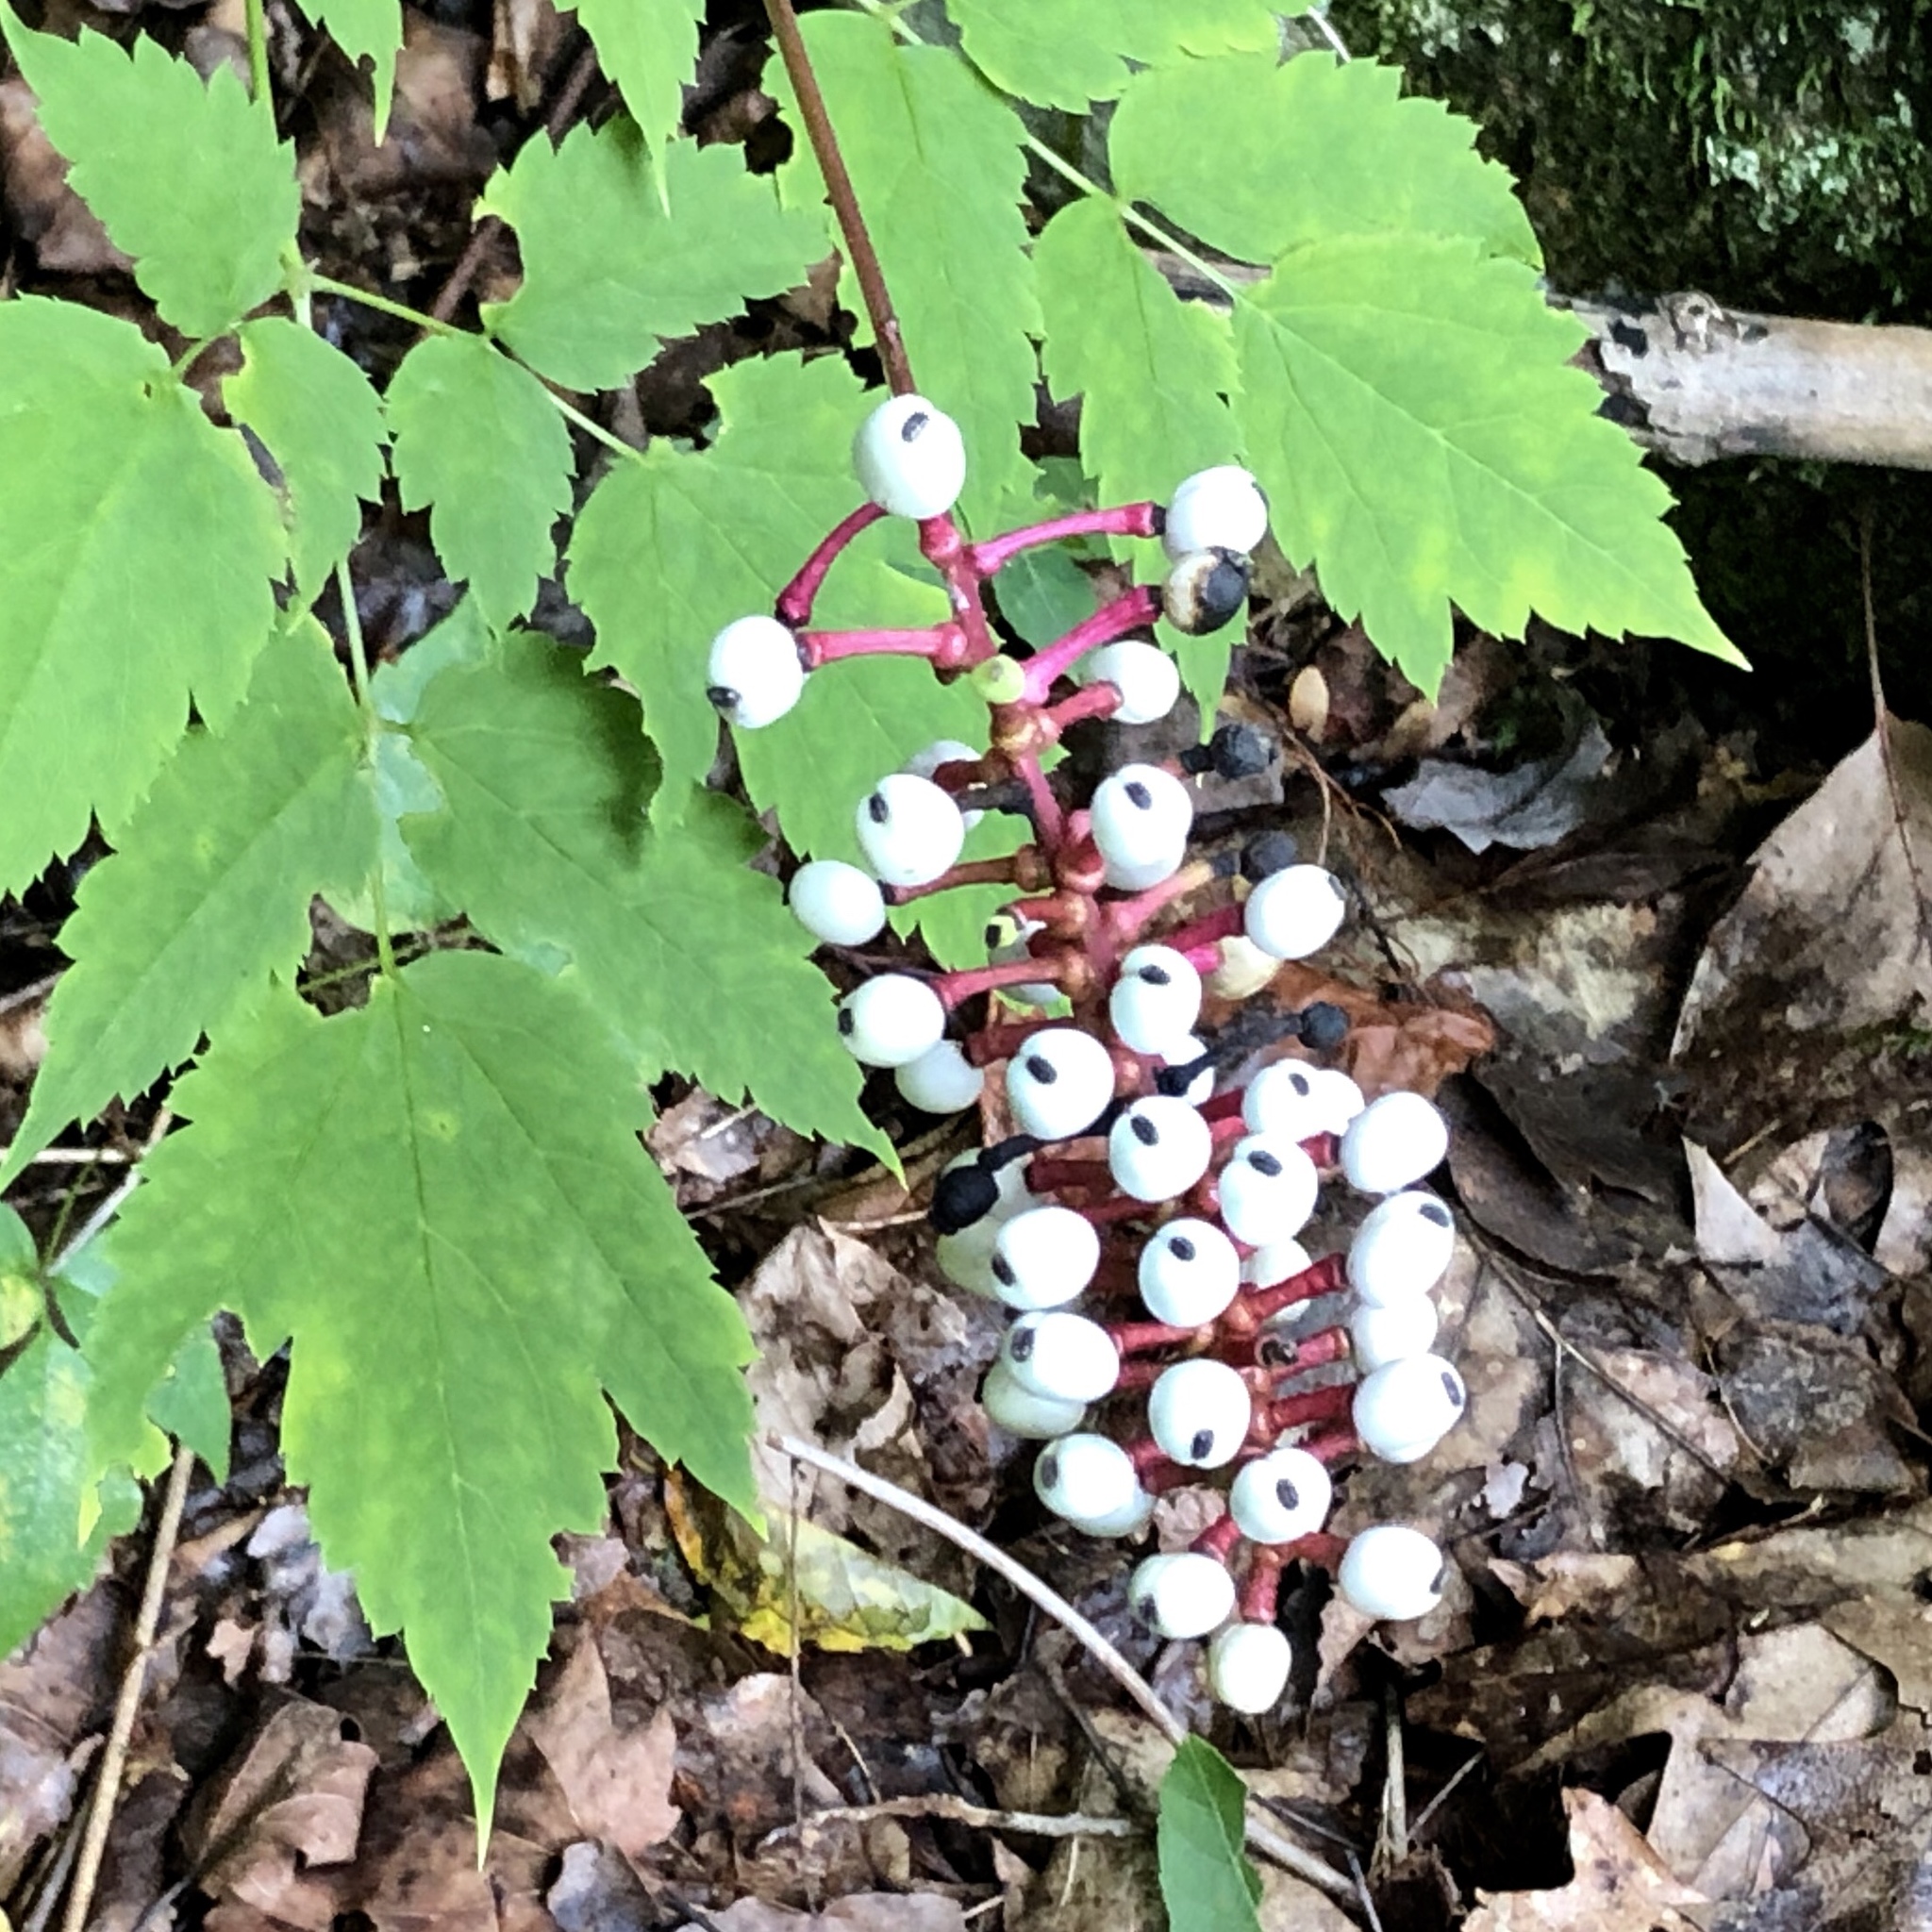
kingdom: Plantae
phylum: Tracheophyta
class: Magnoliopsida
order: Ranunculales
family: Ranunculaceae
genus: Actaea
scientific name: Actaea pachypoda
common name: Doll's-eyes
